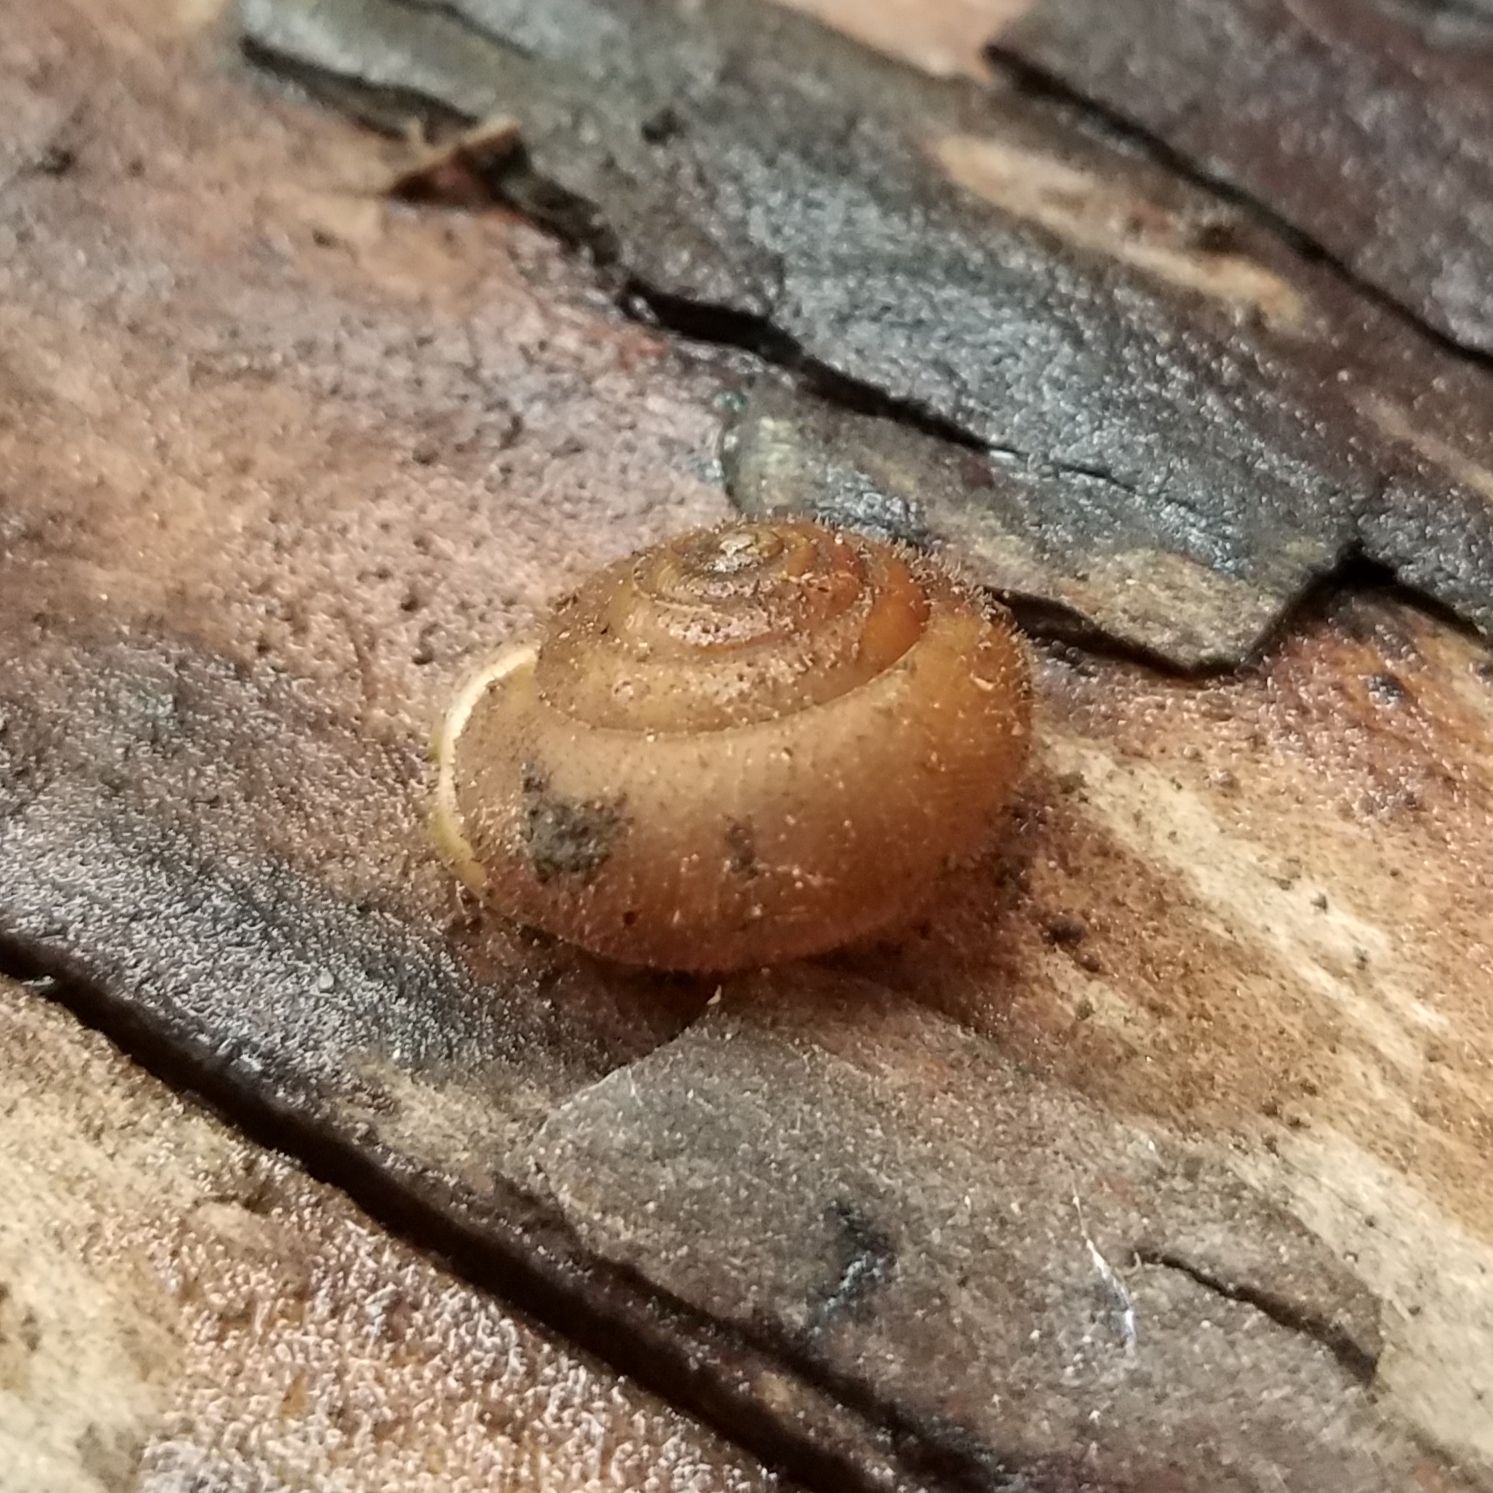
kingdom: Animalia
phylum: Mollusca
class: Gastropoda
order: Stylommatophora
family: Polygyridae
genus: Vespericola
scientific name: Vespericola columbianus
